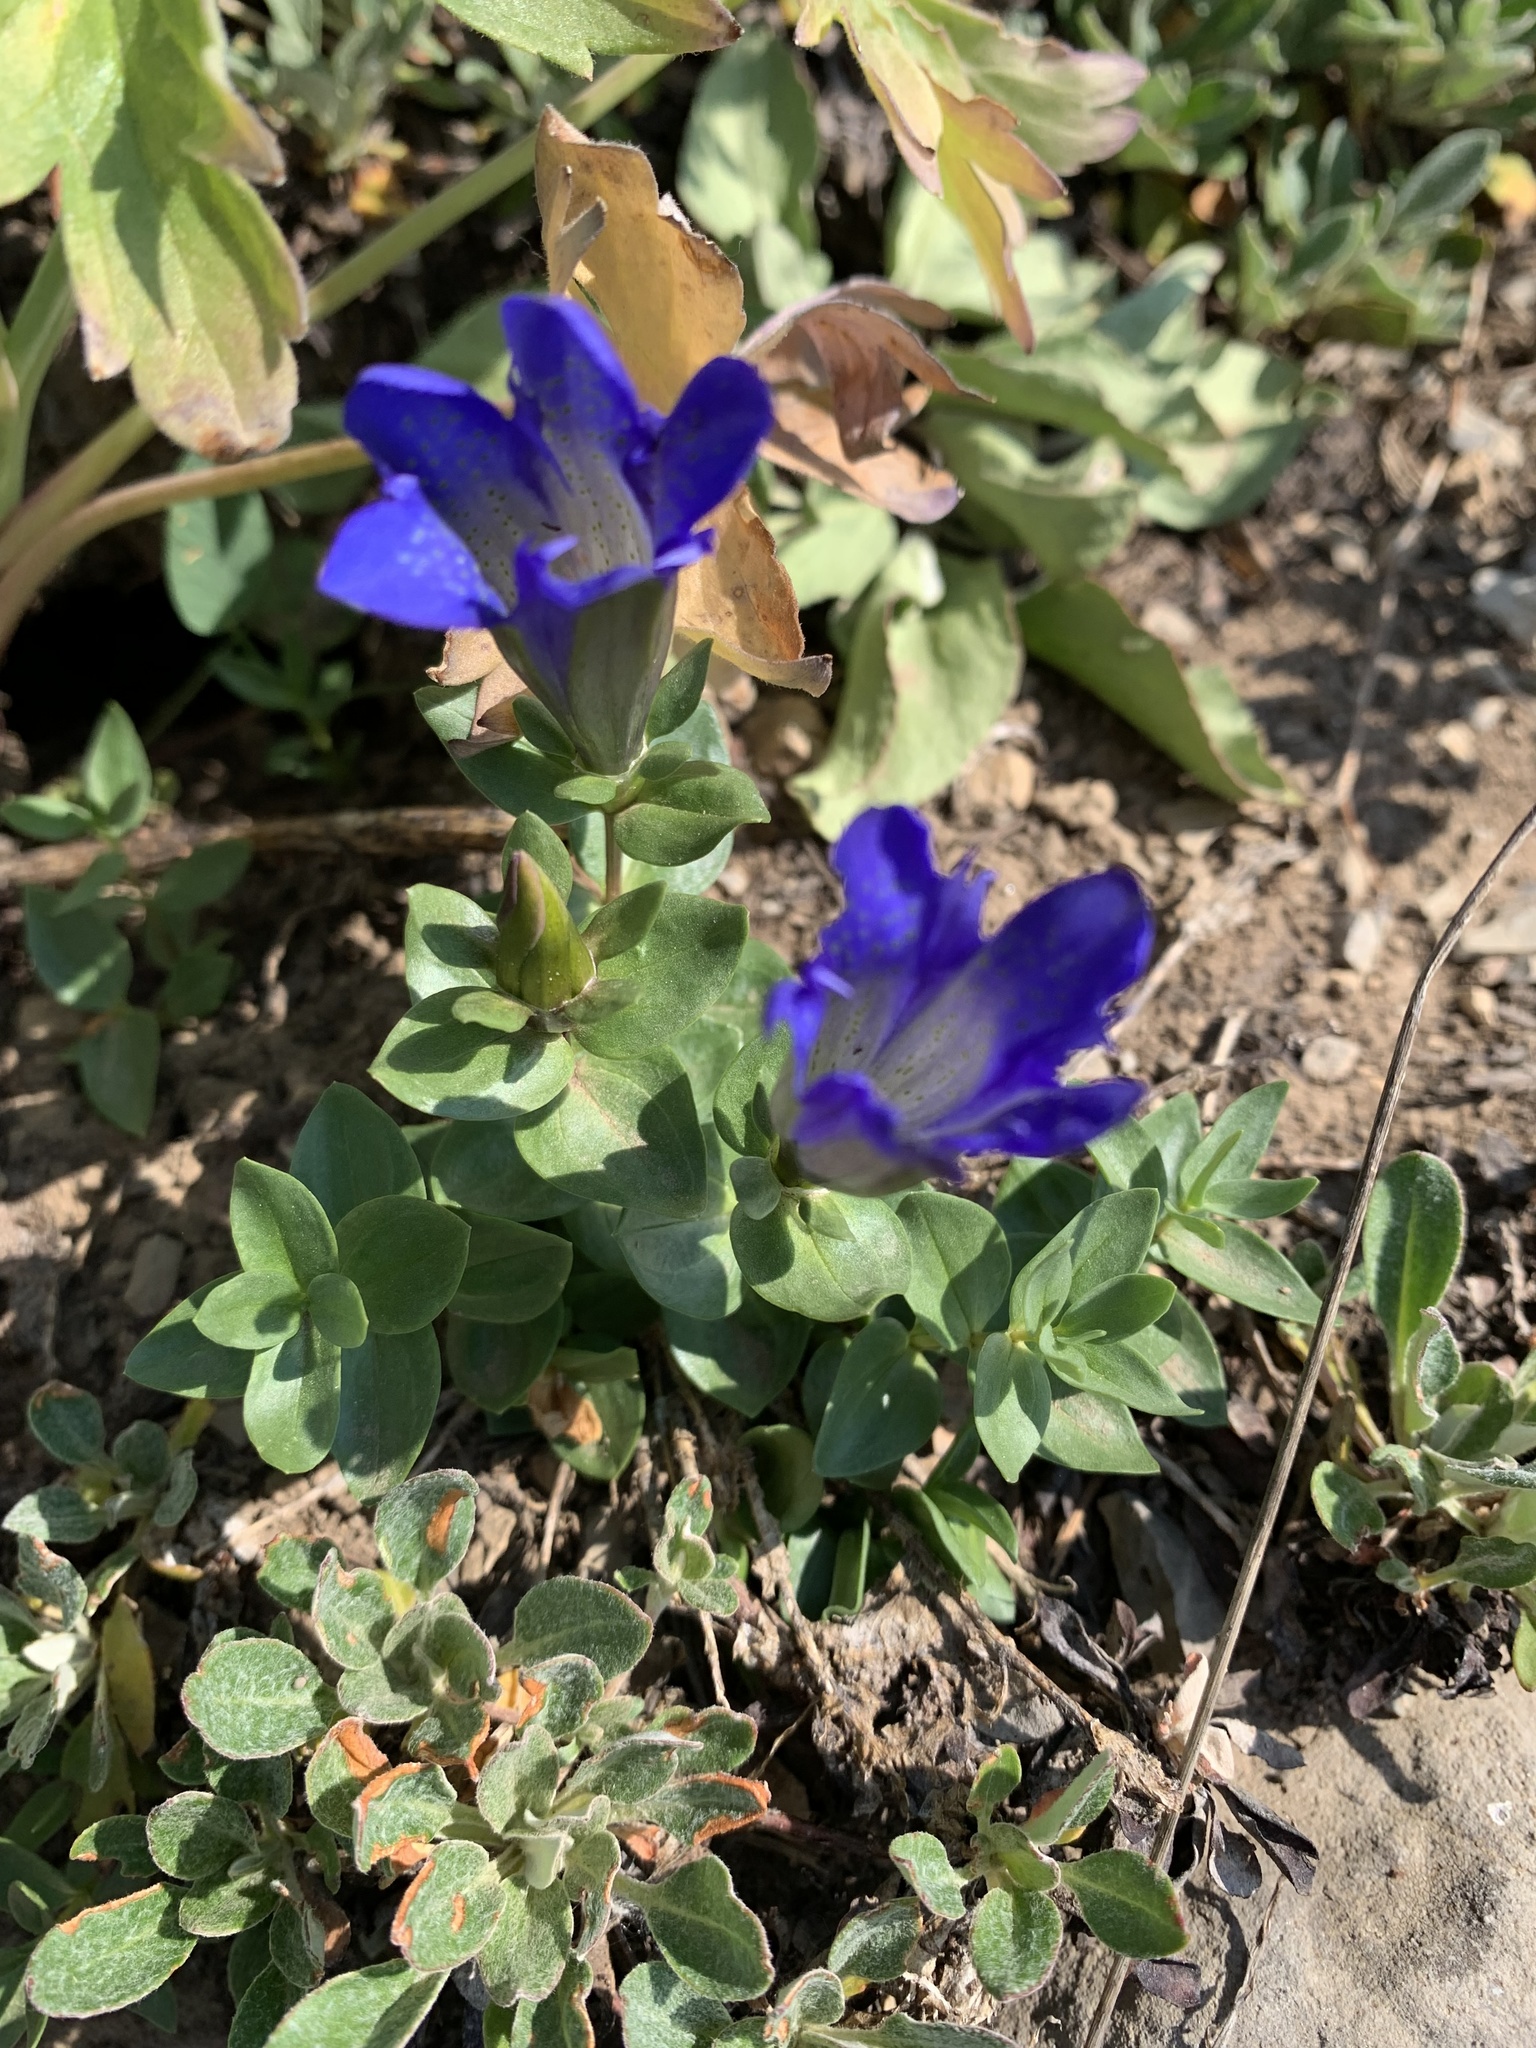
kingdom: Plantae
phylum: Tracheophyta
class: Magnoliopsida
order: Gentianales
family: Gentianaceae
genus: Gentiana
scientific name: Gentiana calycosa
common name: Rainier pleated gentian
